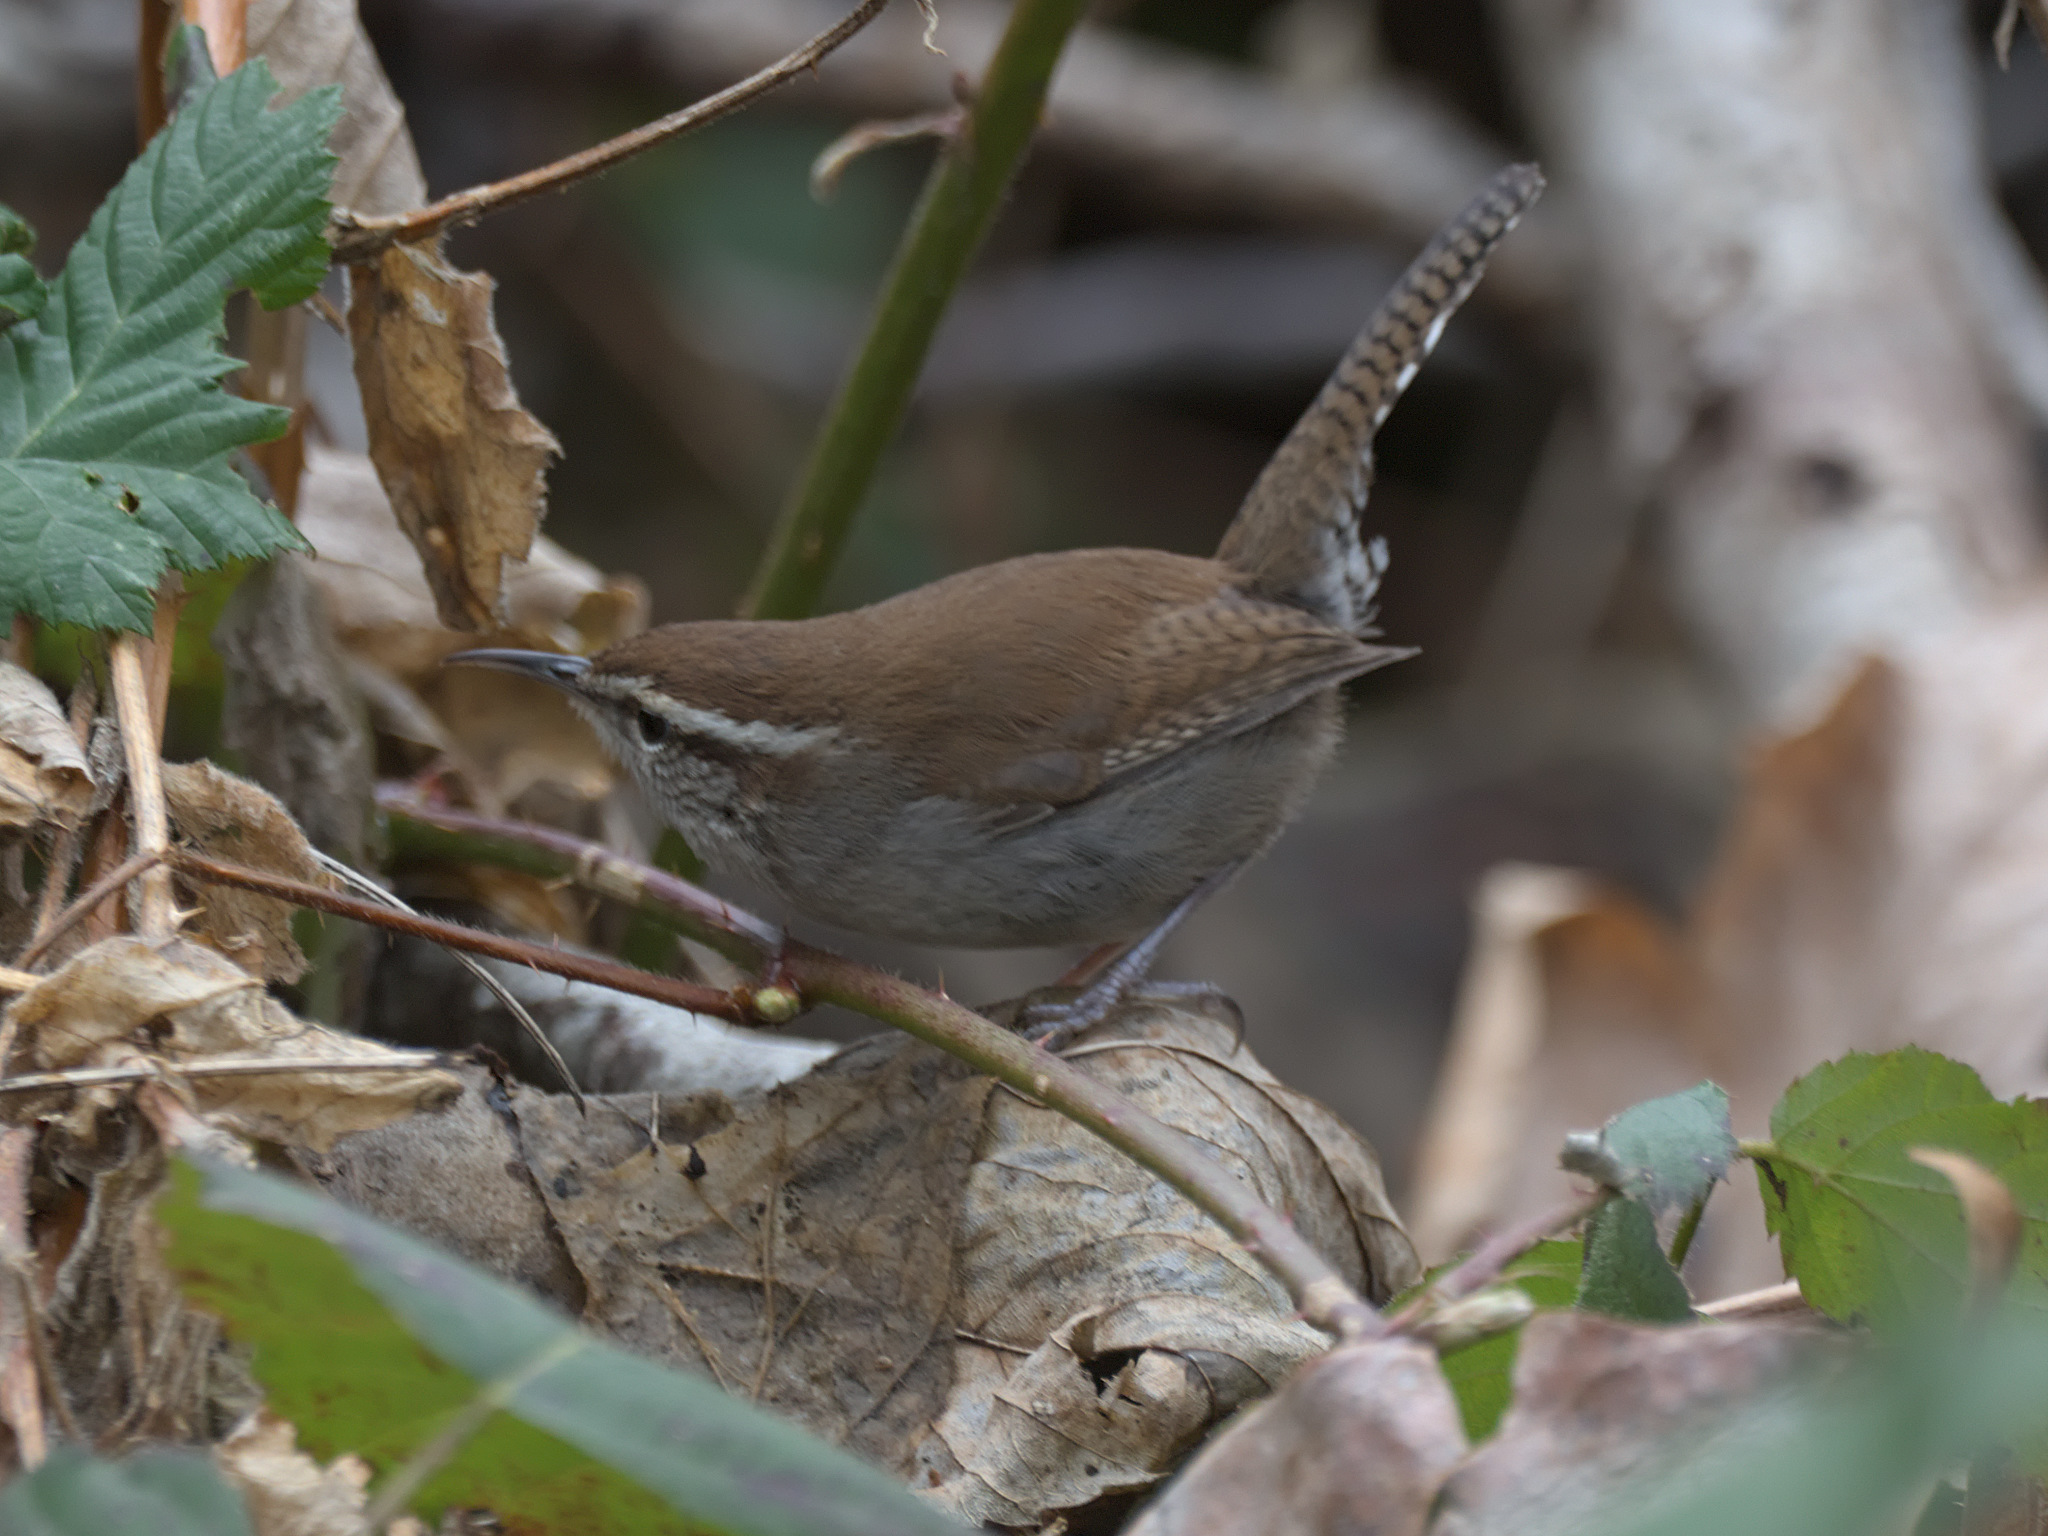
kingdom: Animalia
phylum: Chordata
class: Aves
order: Passeriformes
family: Troglodytidae
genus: Thryomanes
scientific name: Thryomanes bewickii
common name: Bewick's wren
